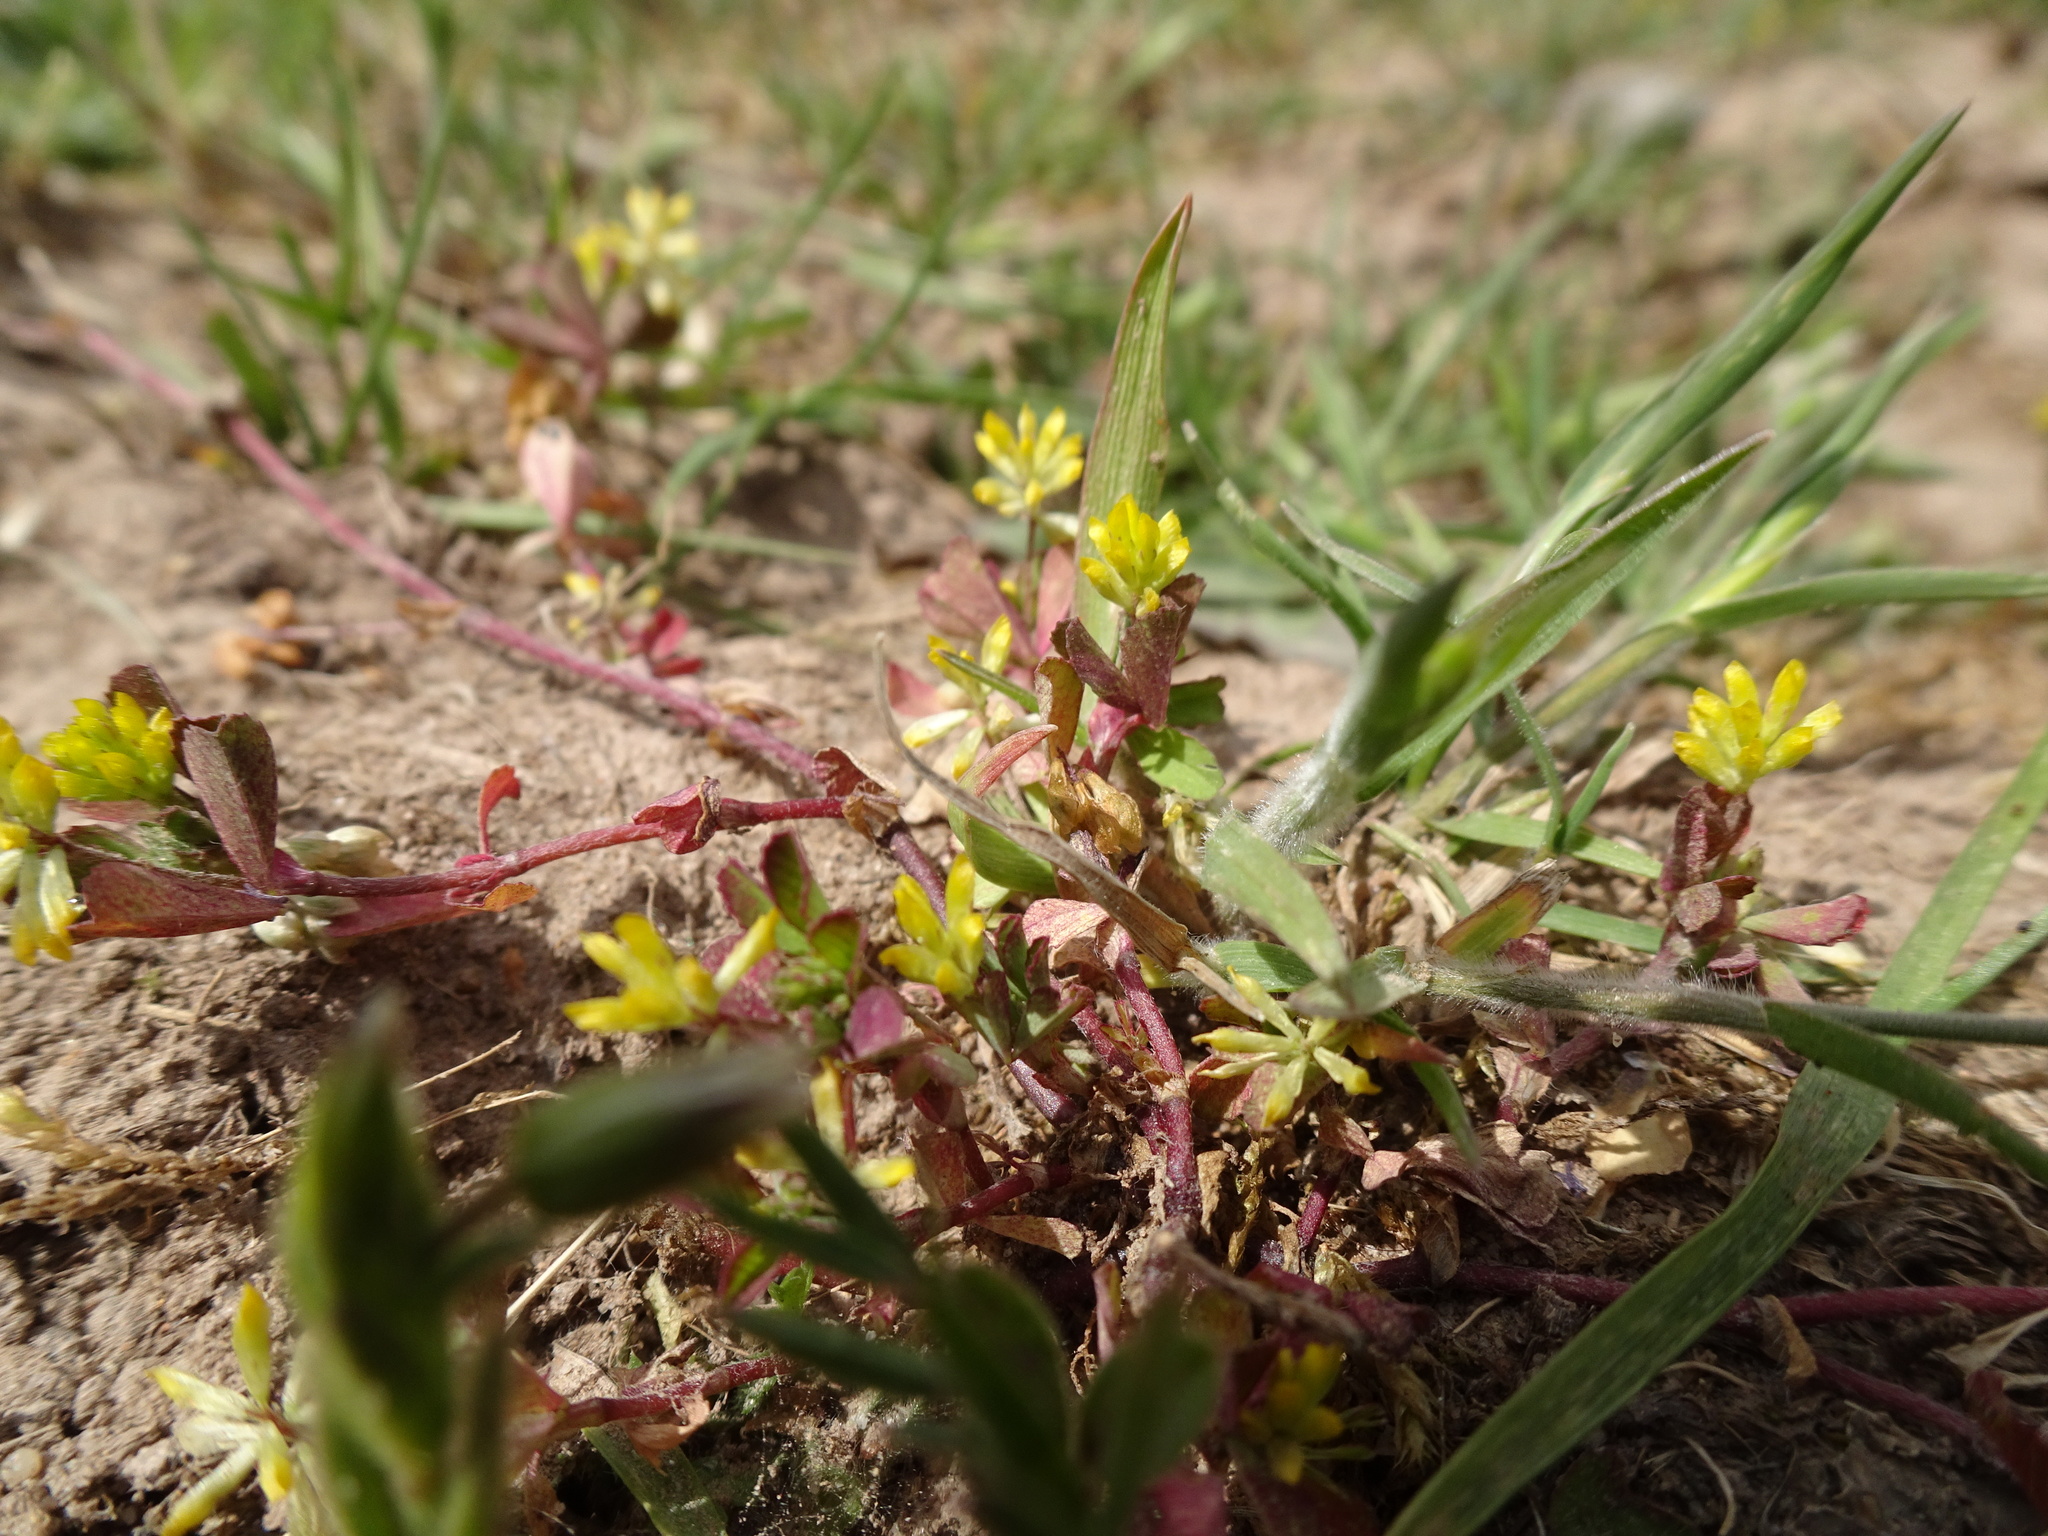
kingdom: Plantae
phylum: Tracheophyta
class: Magnoliopsida
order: Fabales
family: Fabaceae
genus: Trifolium
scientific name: Trifolium dubium
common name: Suckling clover
